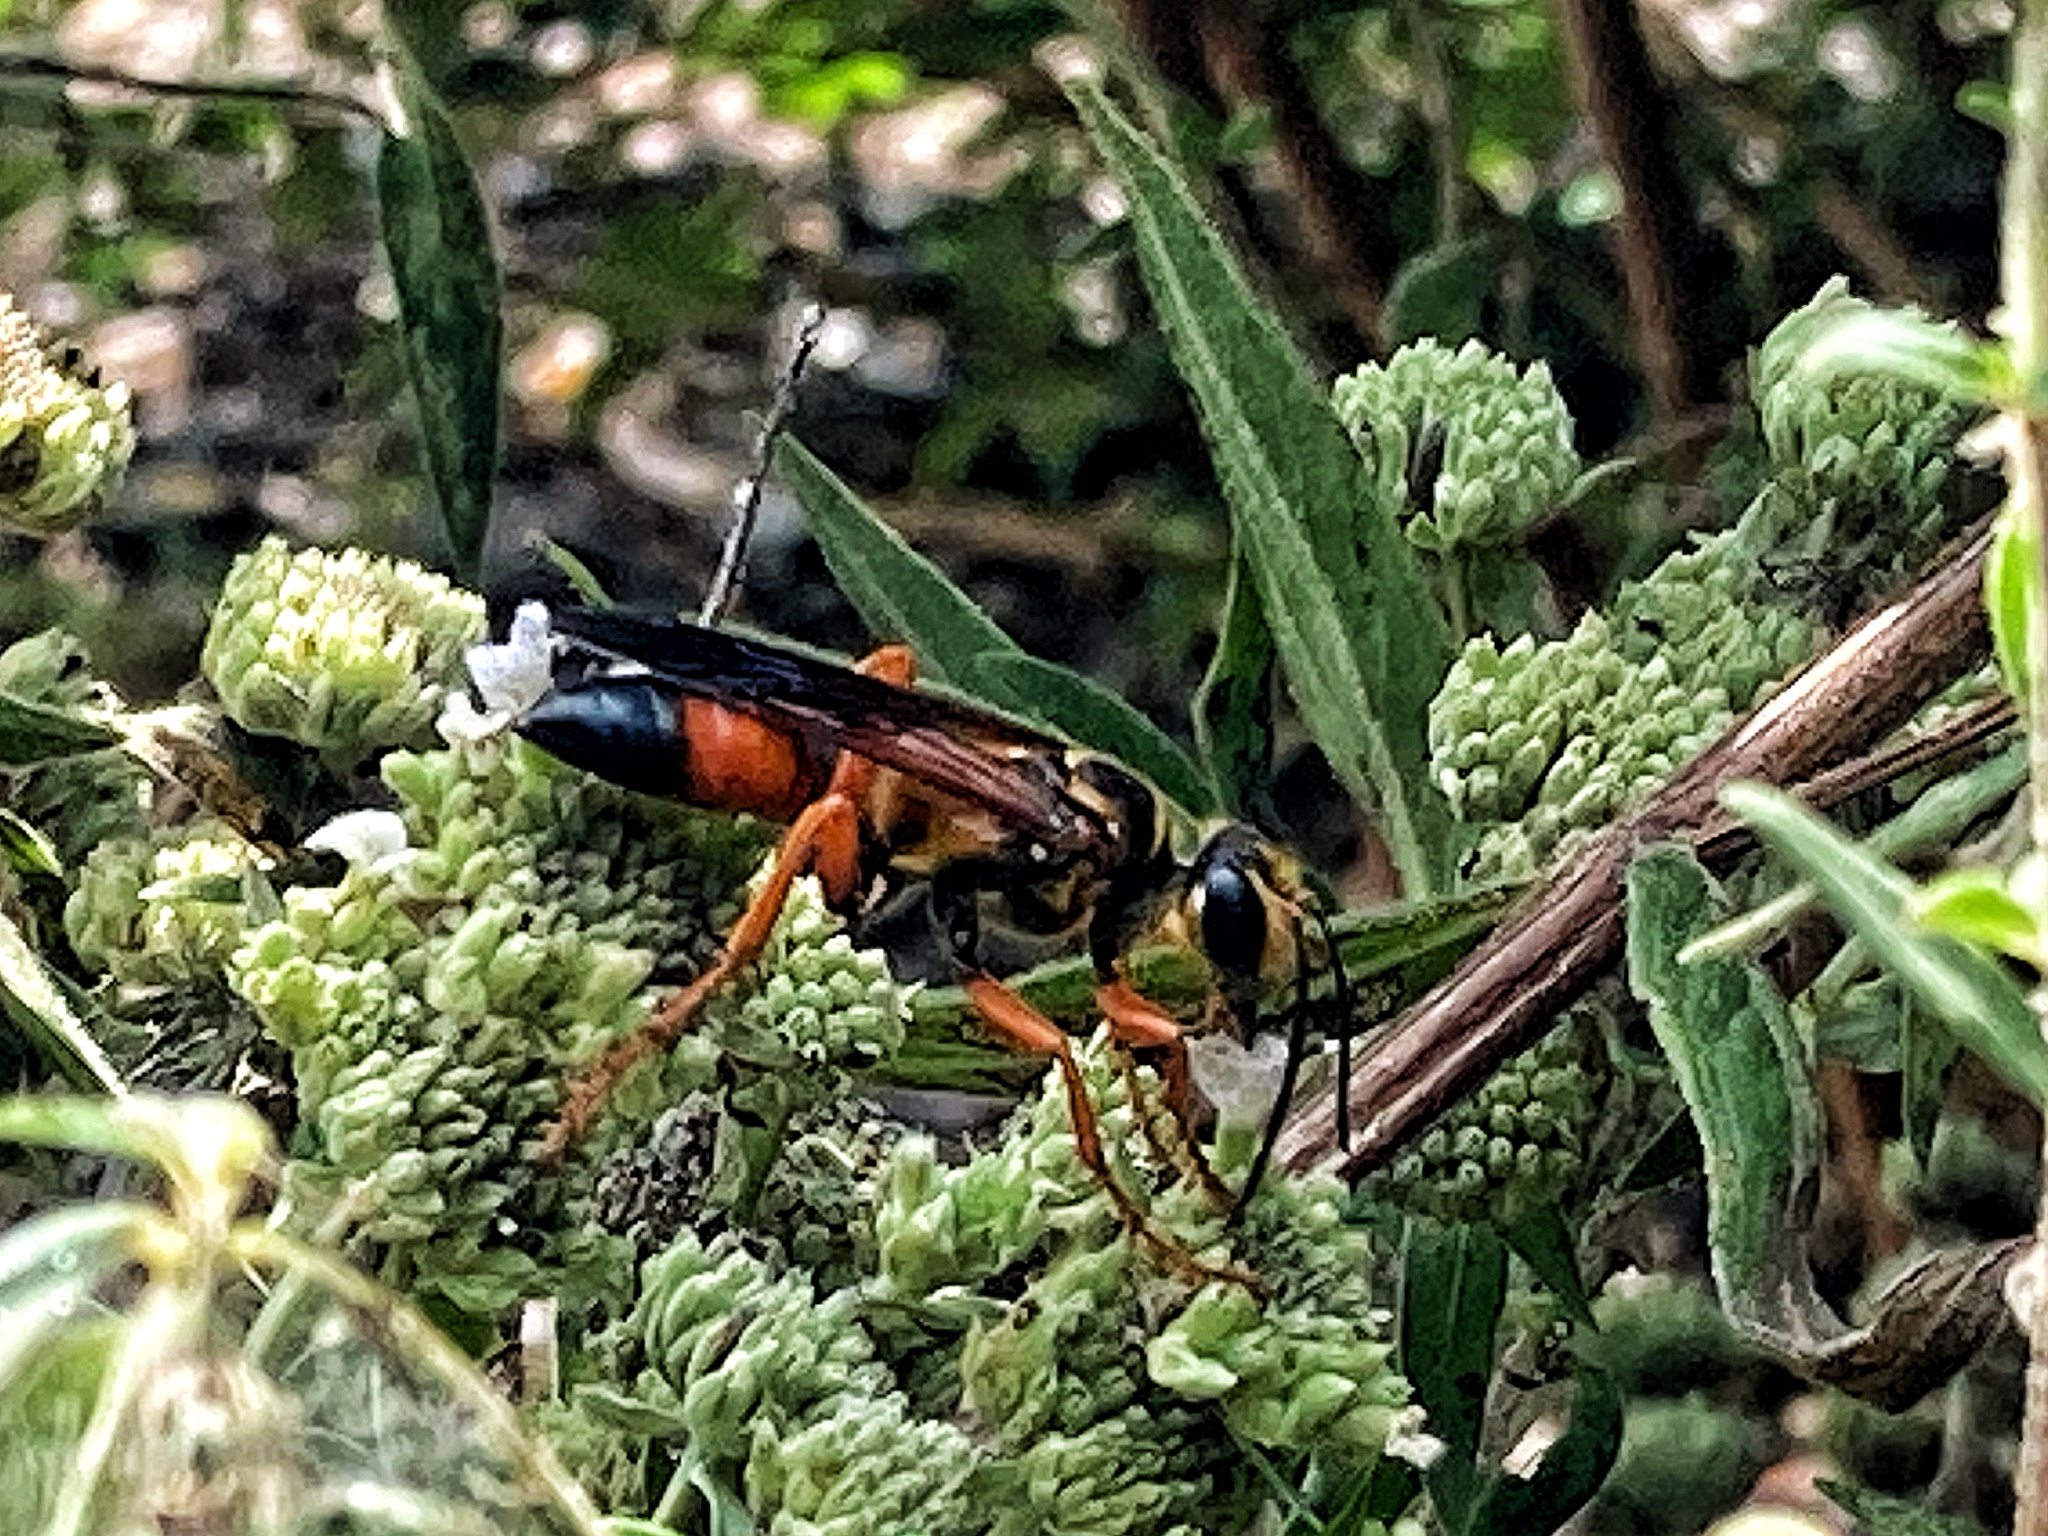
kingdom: Animalia
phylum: Arthropoda
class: Insecta
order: Hymenoptera
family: Sphecidae
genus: Sphex
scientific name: Sphex ichneumoneus
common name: Great golden digger wasp
